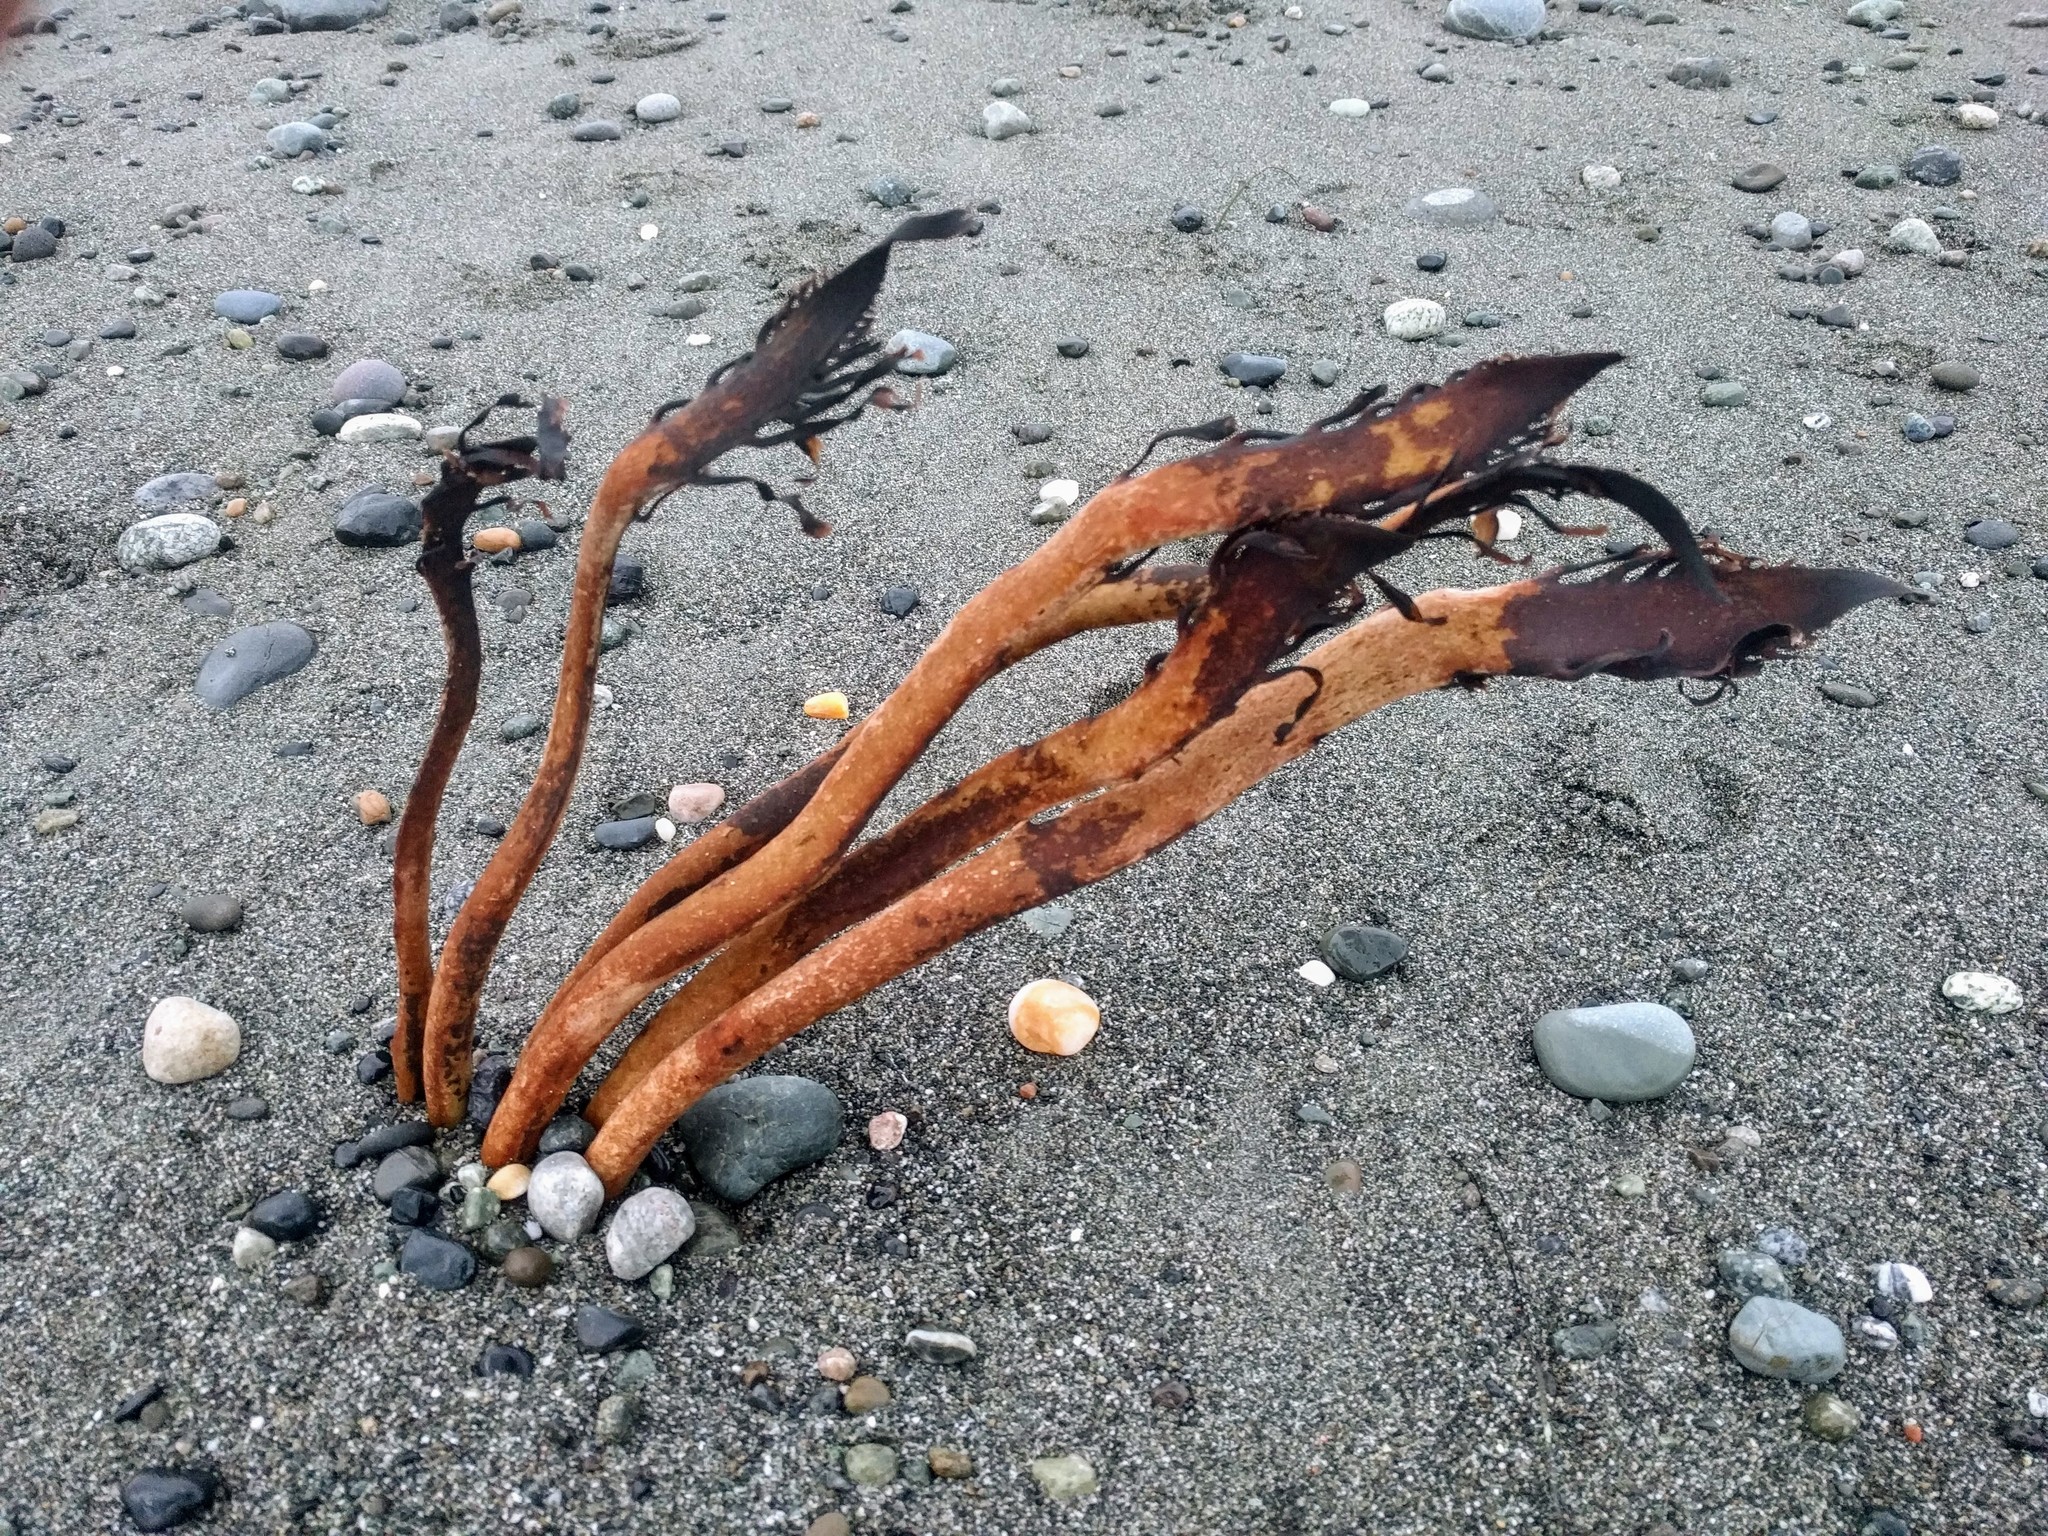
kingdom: Chromista
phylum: Ochrophyta
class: Phaeophyceae
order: Laminariales
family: Alariaceae
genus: Pterygophora
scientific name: Pterygophora californica
